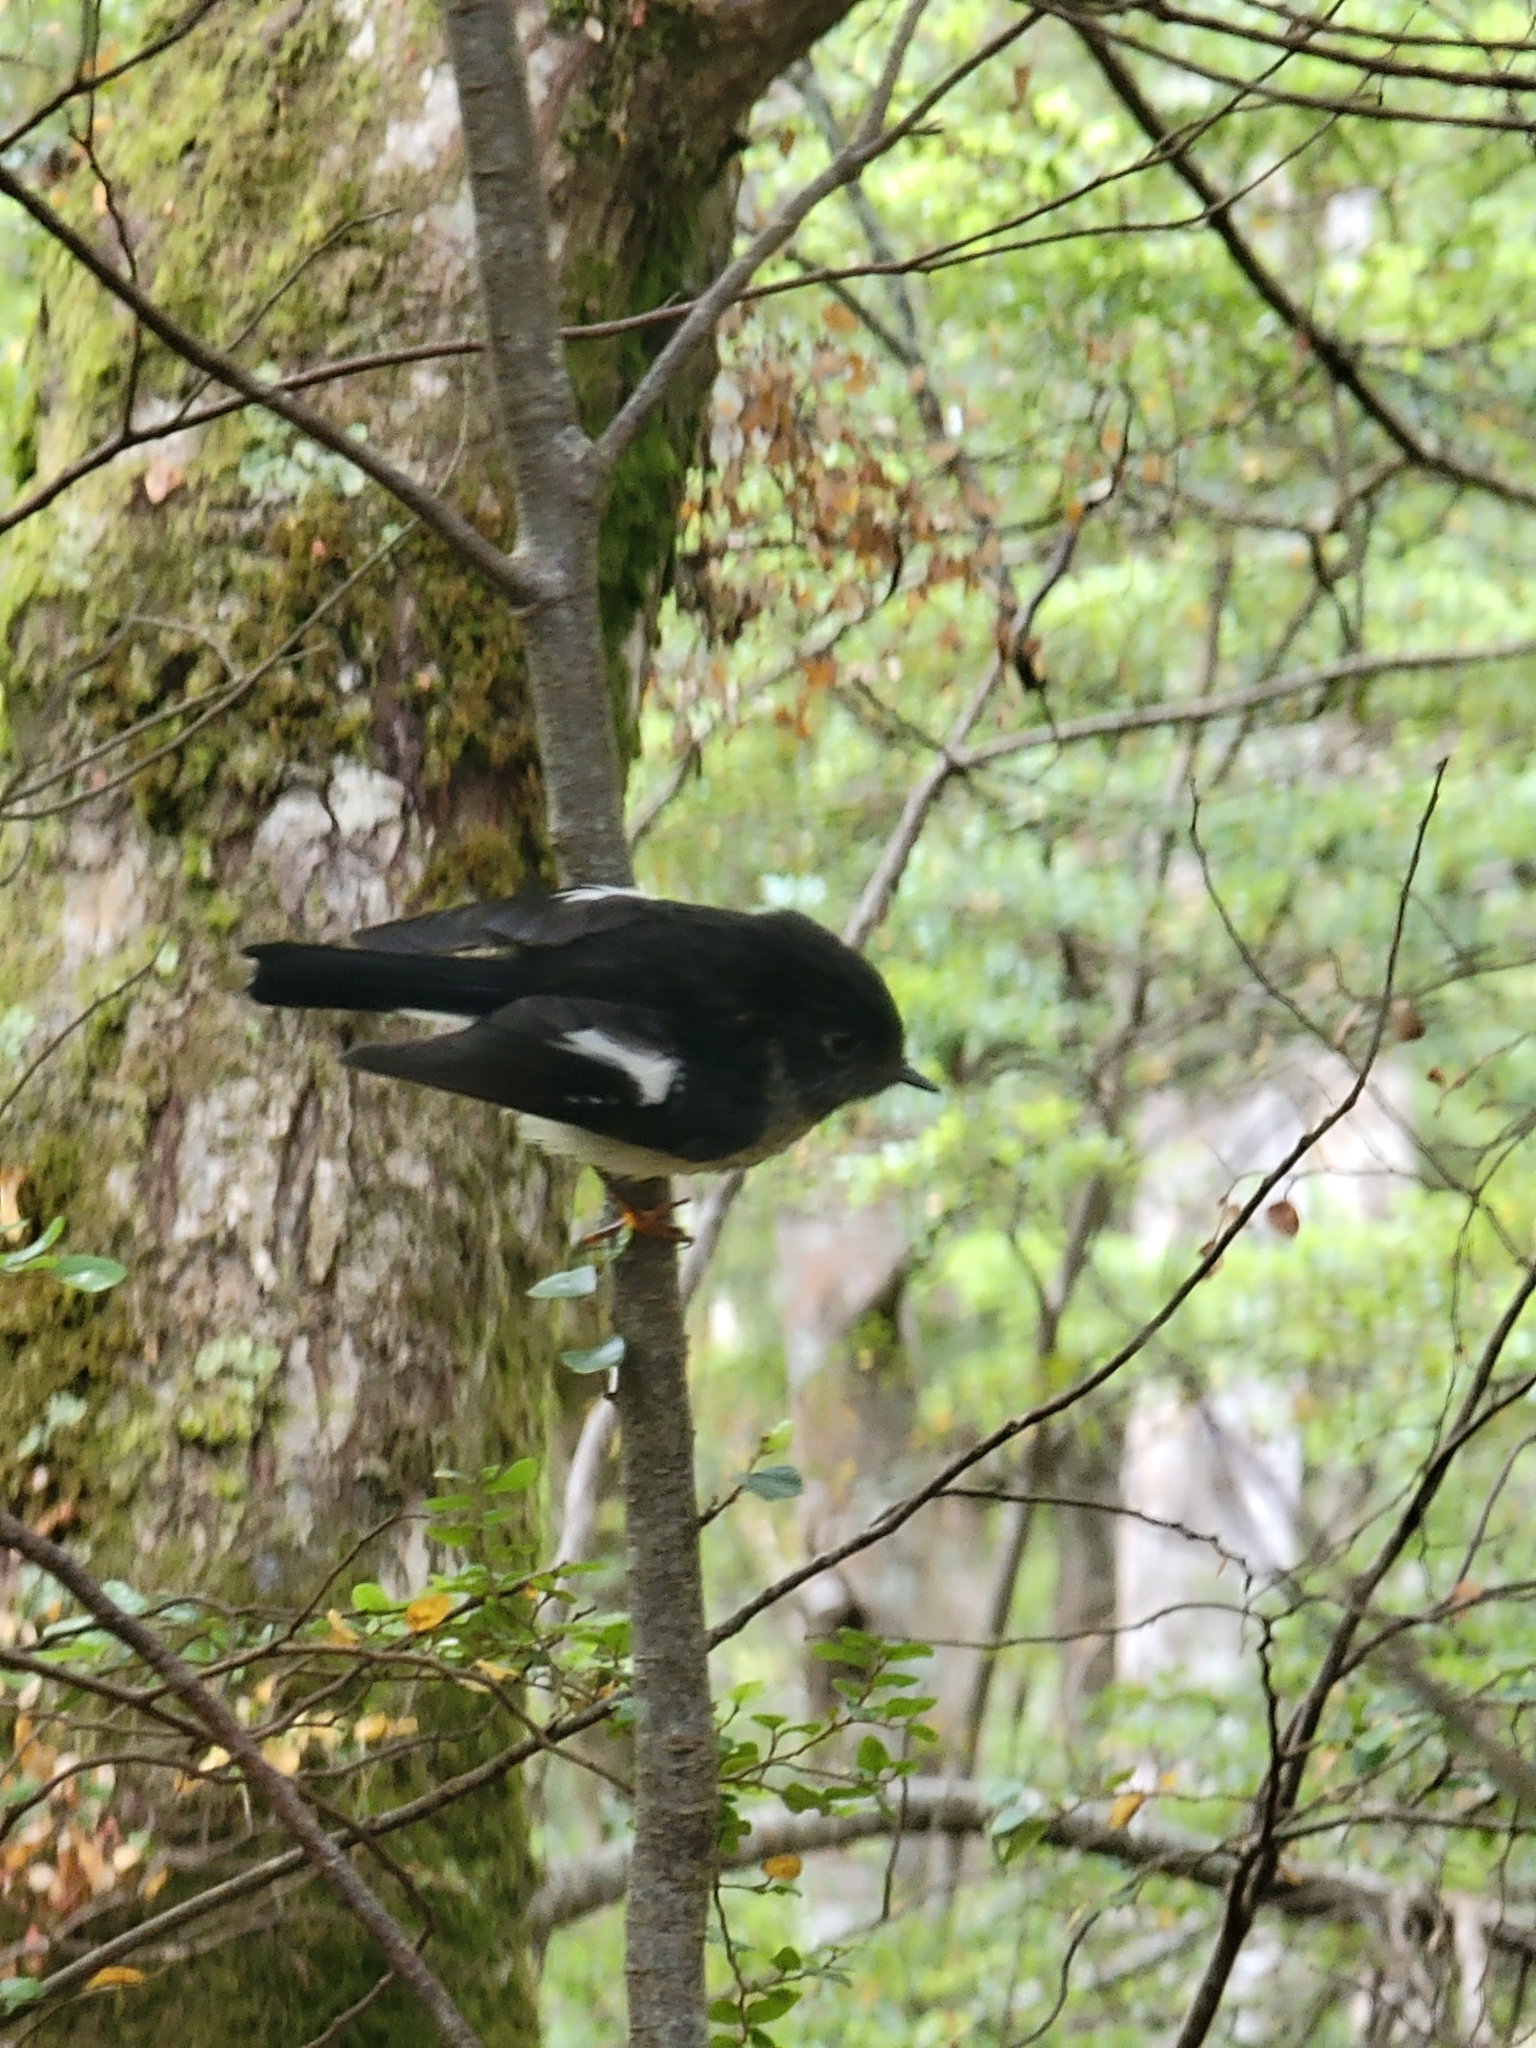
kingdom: Animalia
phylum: Chordata
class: Aves
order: Passeriformes
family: Petroicidae
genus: Petroica
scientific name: Petroica macrocephala
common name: Tomtit
